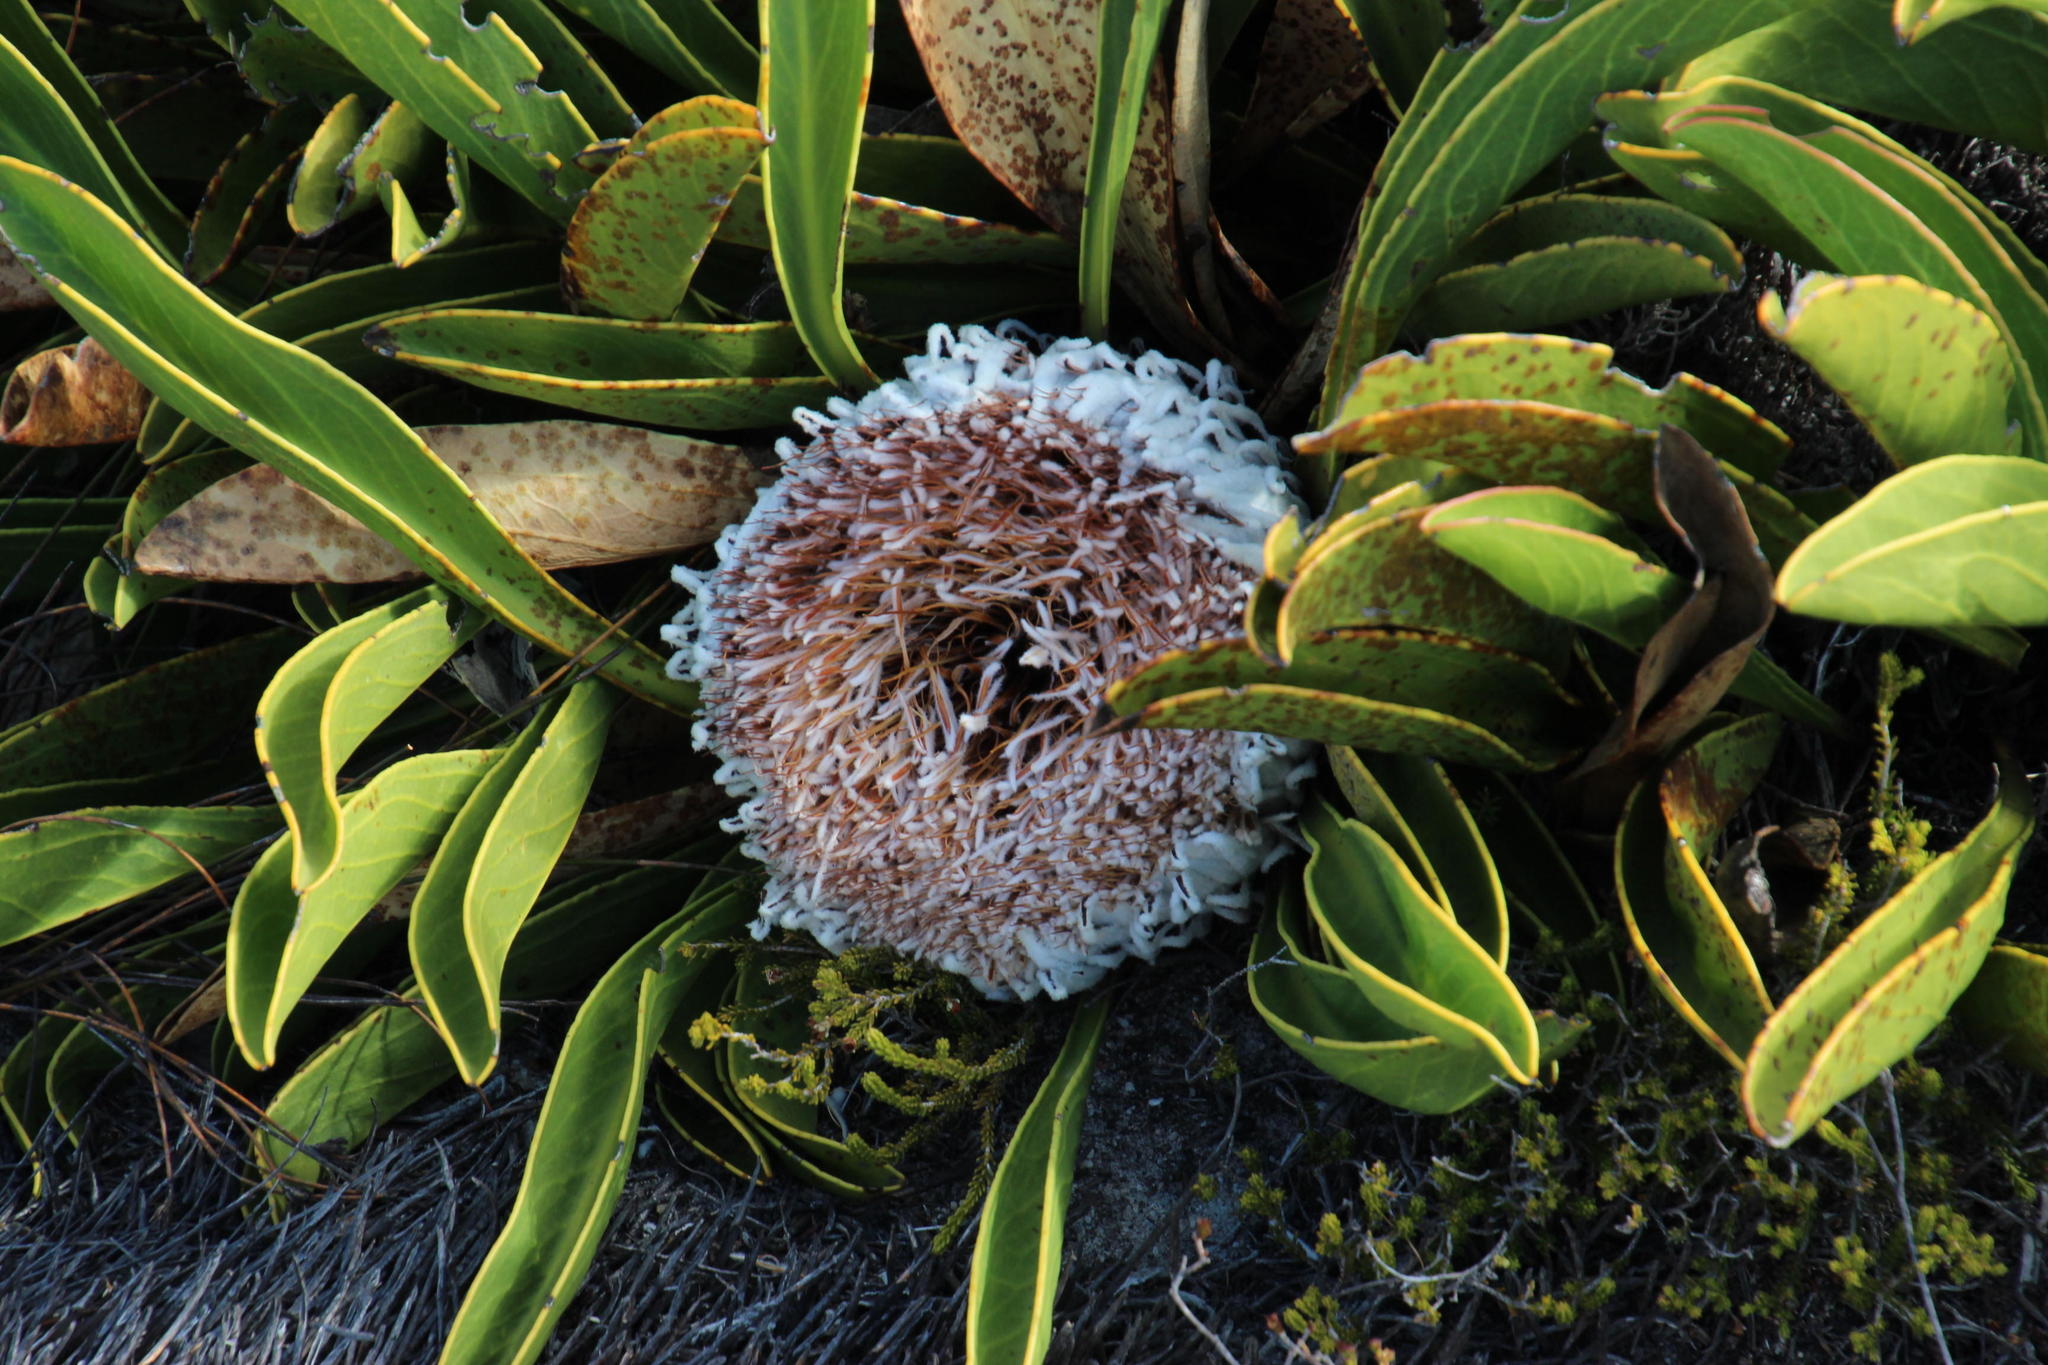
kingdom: Plantae
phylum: Tracheophyta
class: Magnoliopsida
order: Proteales
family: Proteaceae
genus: Protea
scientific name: Protea cryophila
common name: Snow protea
